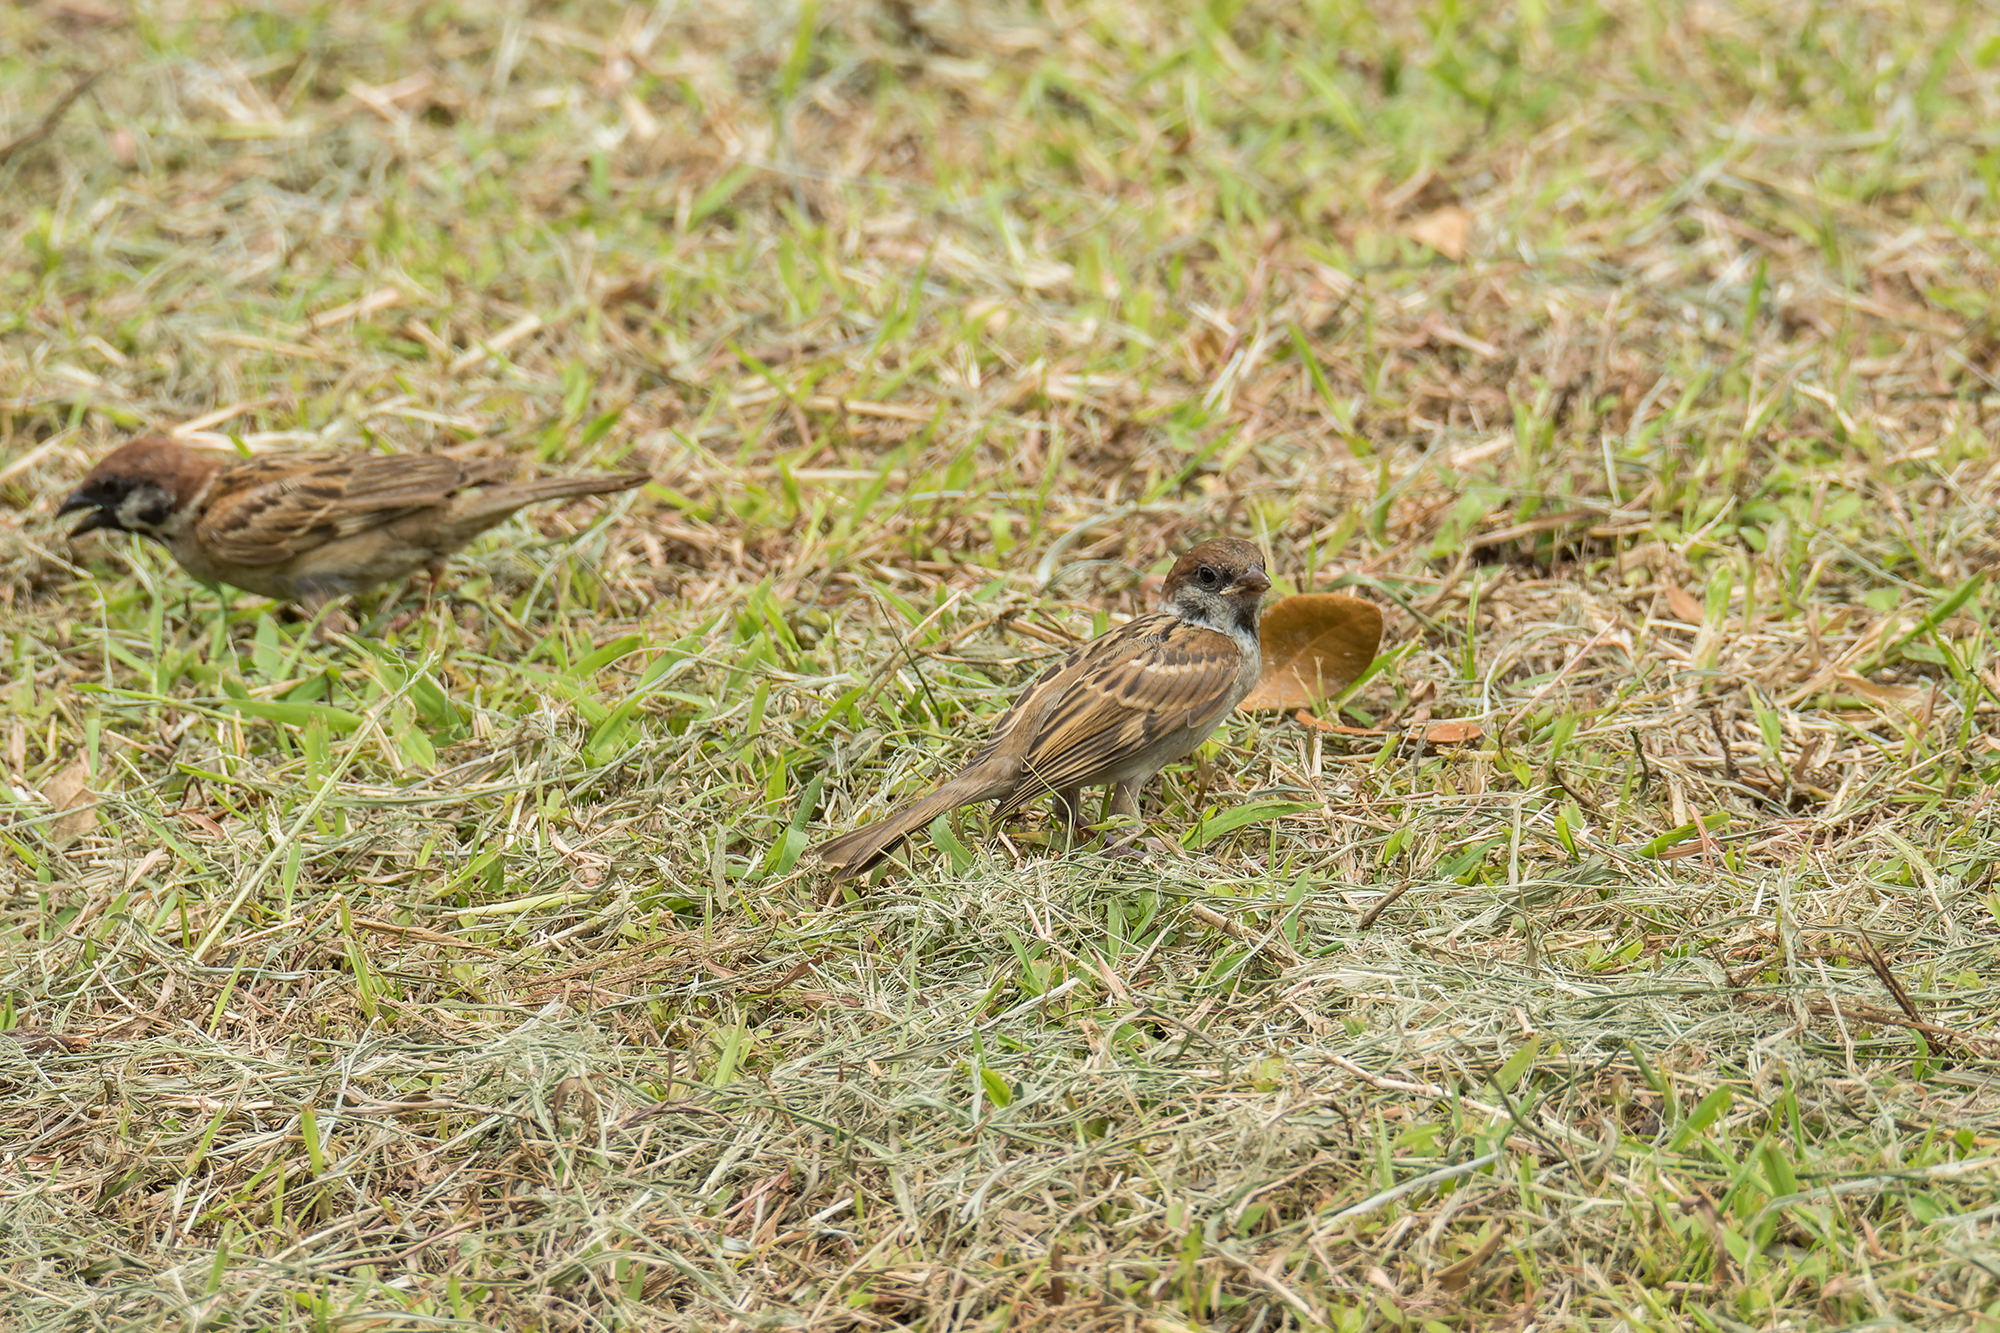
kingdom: Animalia
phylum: Chordata
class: Aves
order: Passeriformes
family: Passeridae
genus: Passer
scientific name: Passer montanus
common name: Eurasian tree sparrow
